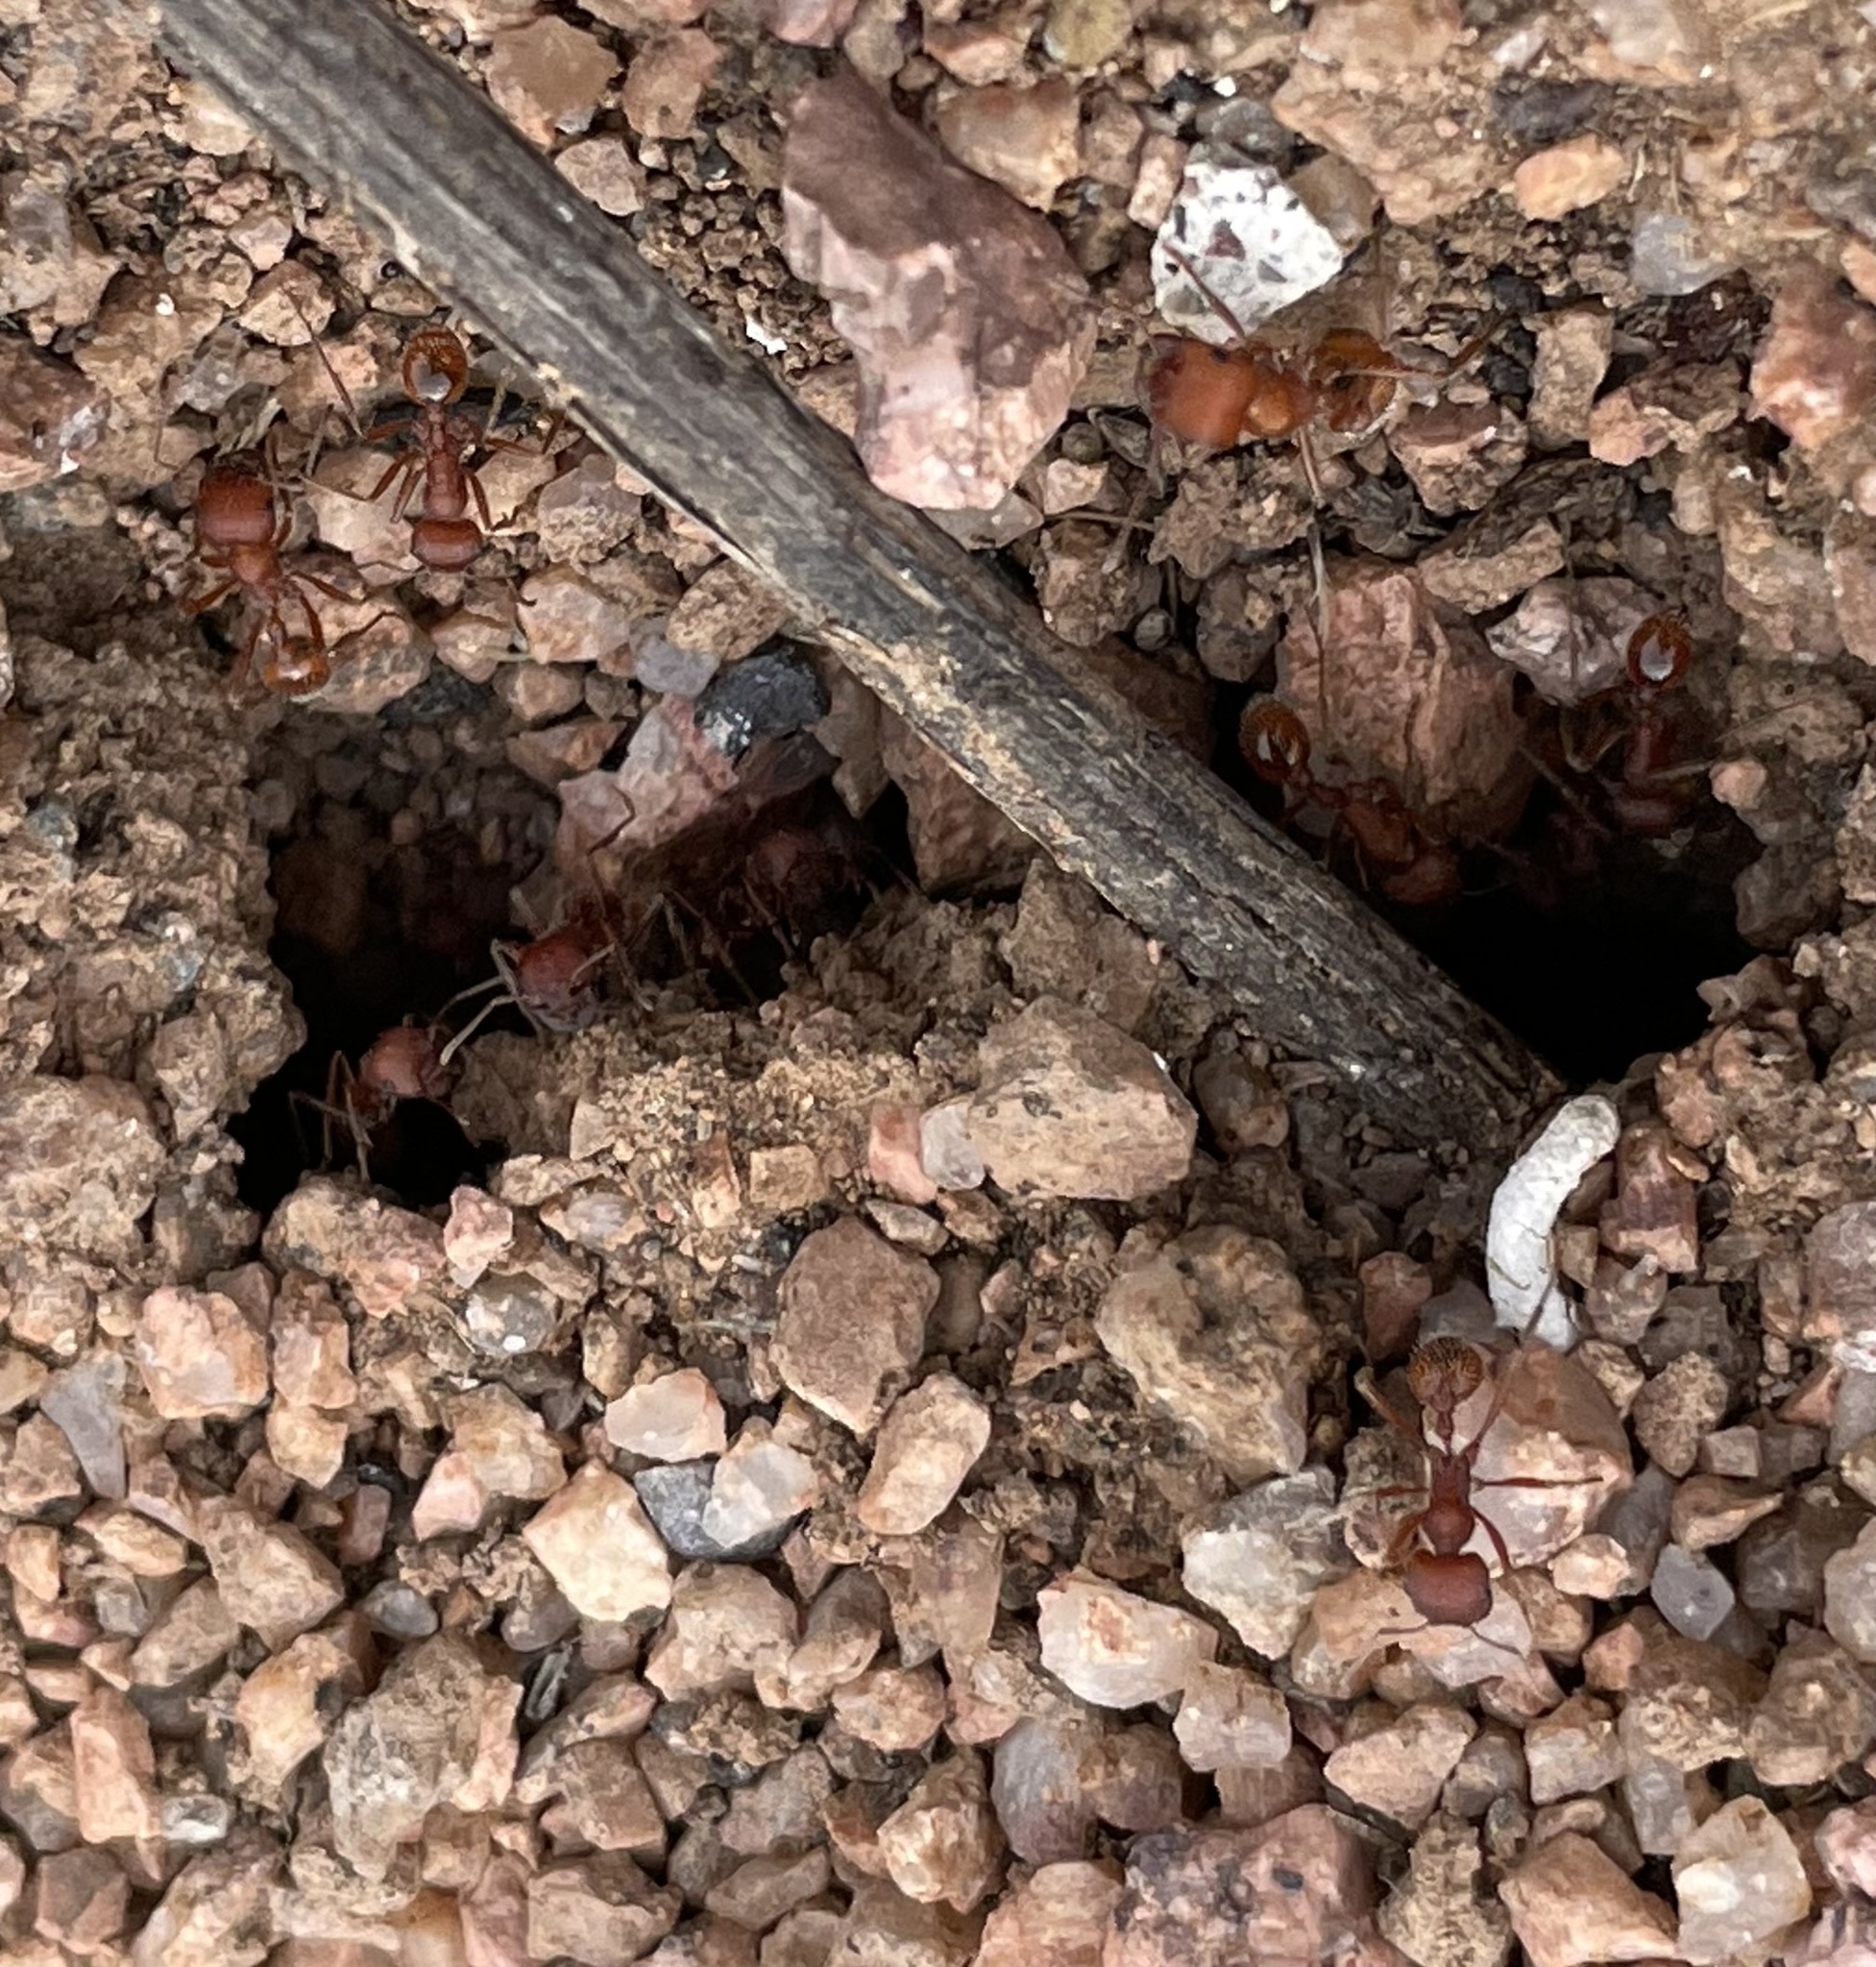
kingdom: Animalia
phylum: Arthropoda
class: Insecta
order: Hymenoptera
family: Formicidae
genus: Pogonomyrmex
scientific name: Pogonomyrmex occidentalis
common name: Western harvester ant
